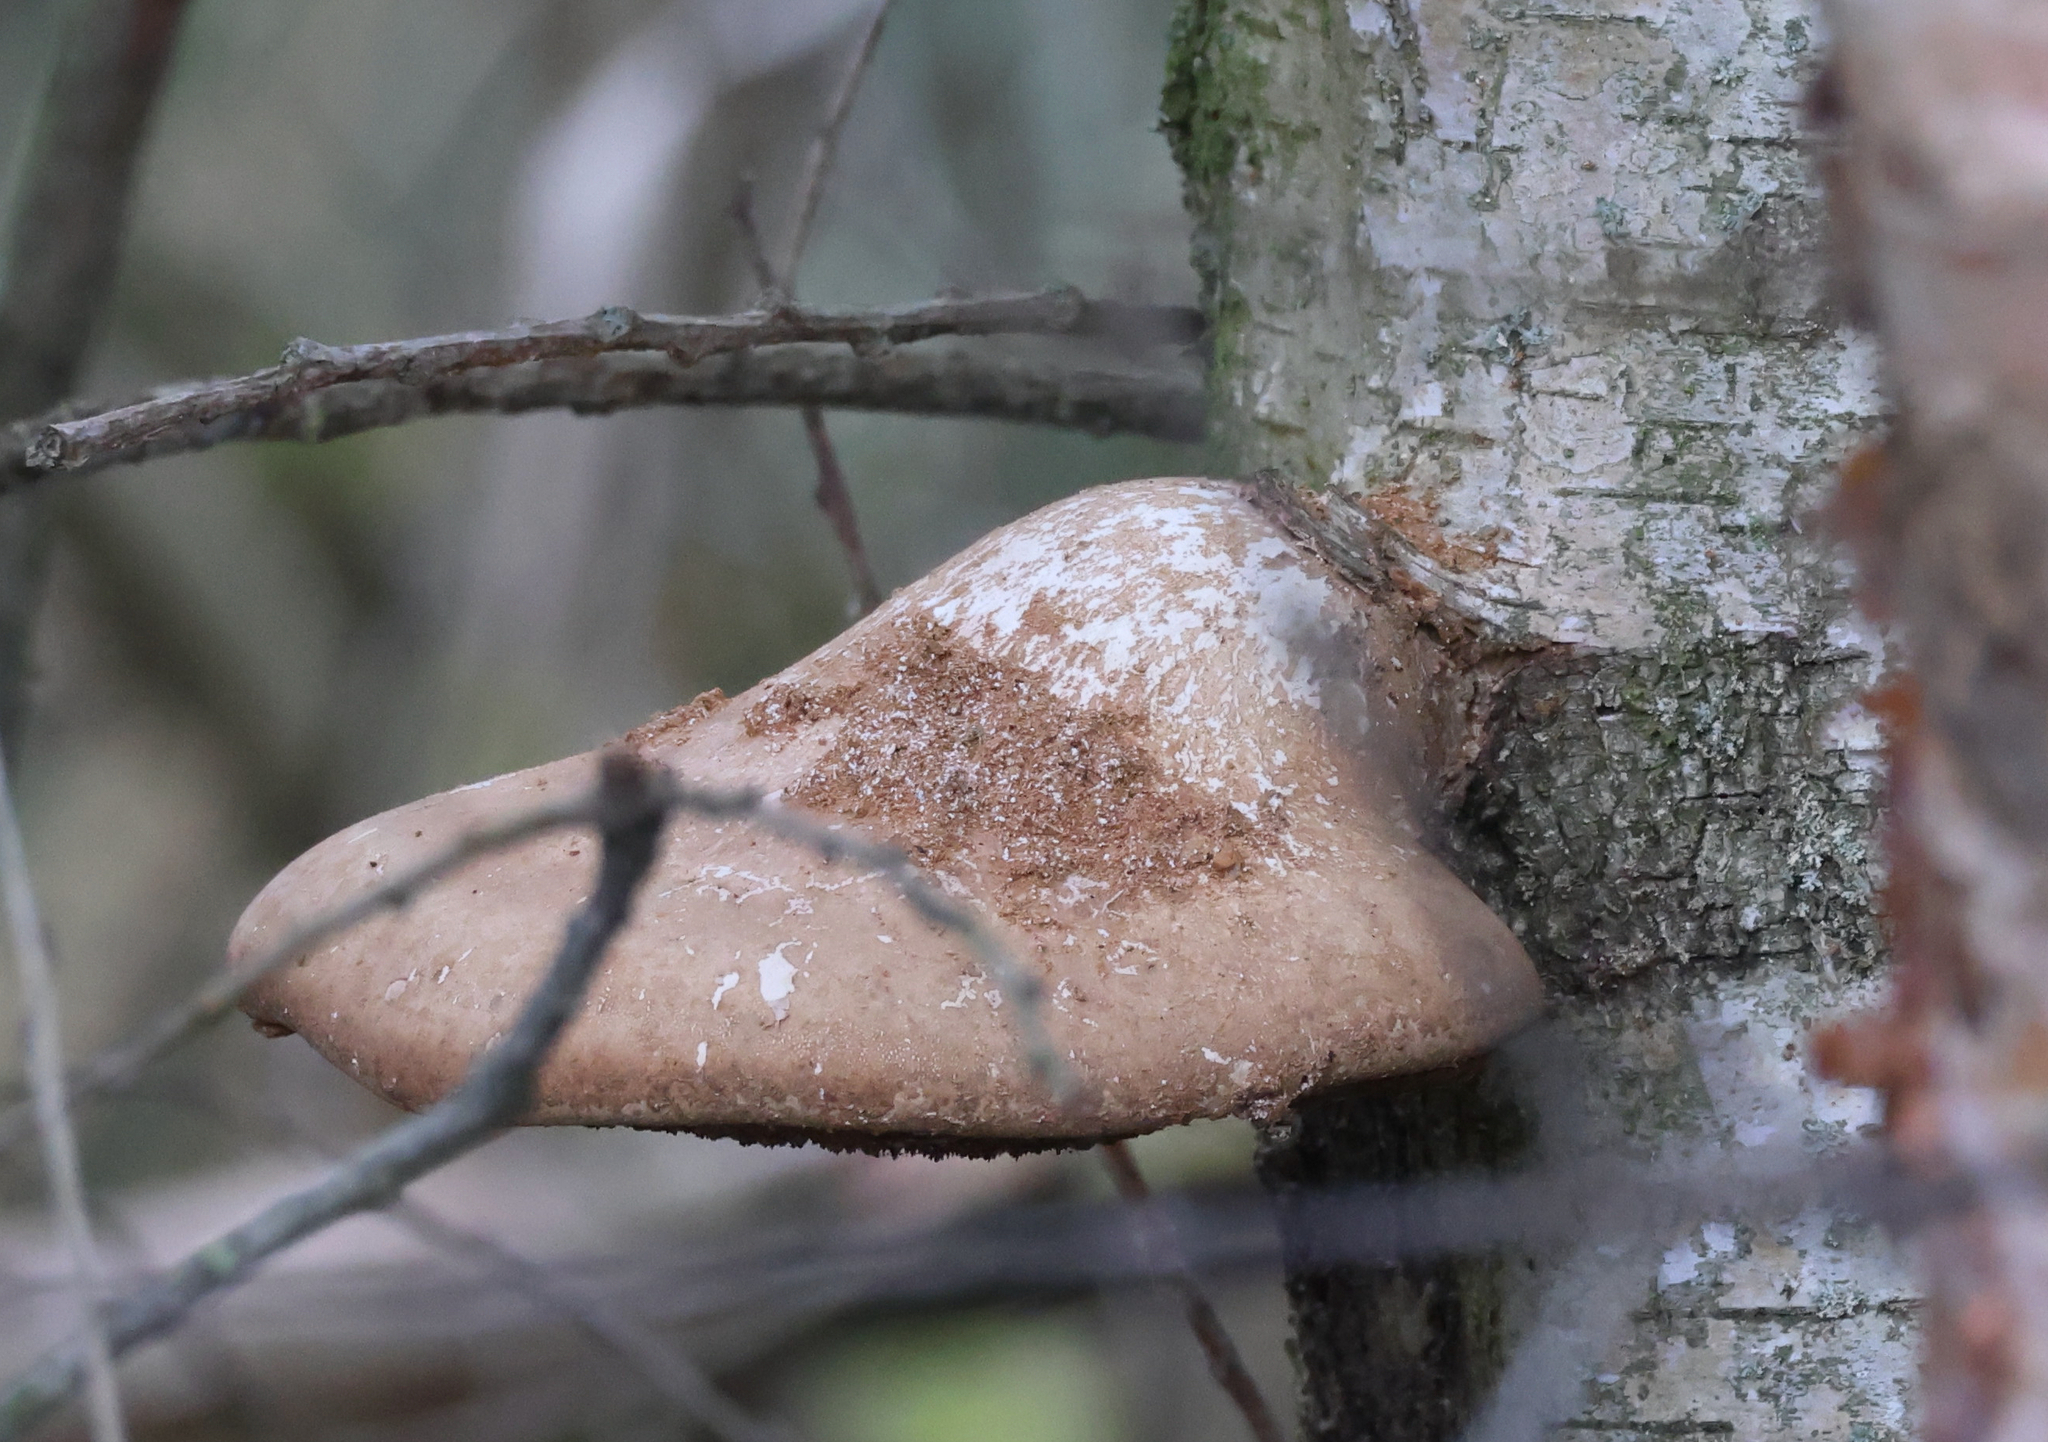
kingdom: Fungi
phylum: Basidiomycota
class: Agaricomycetes
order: Polyporales
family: Fomitopsidaceae
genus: Fomitopsis
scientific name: Fomitopsis betulina
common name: Birch polypore
